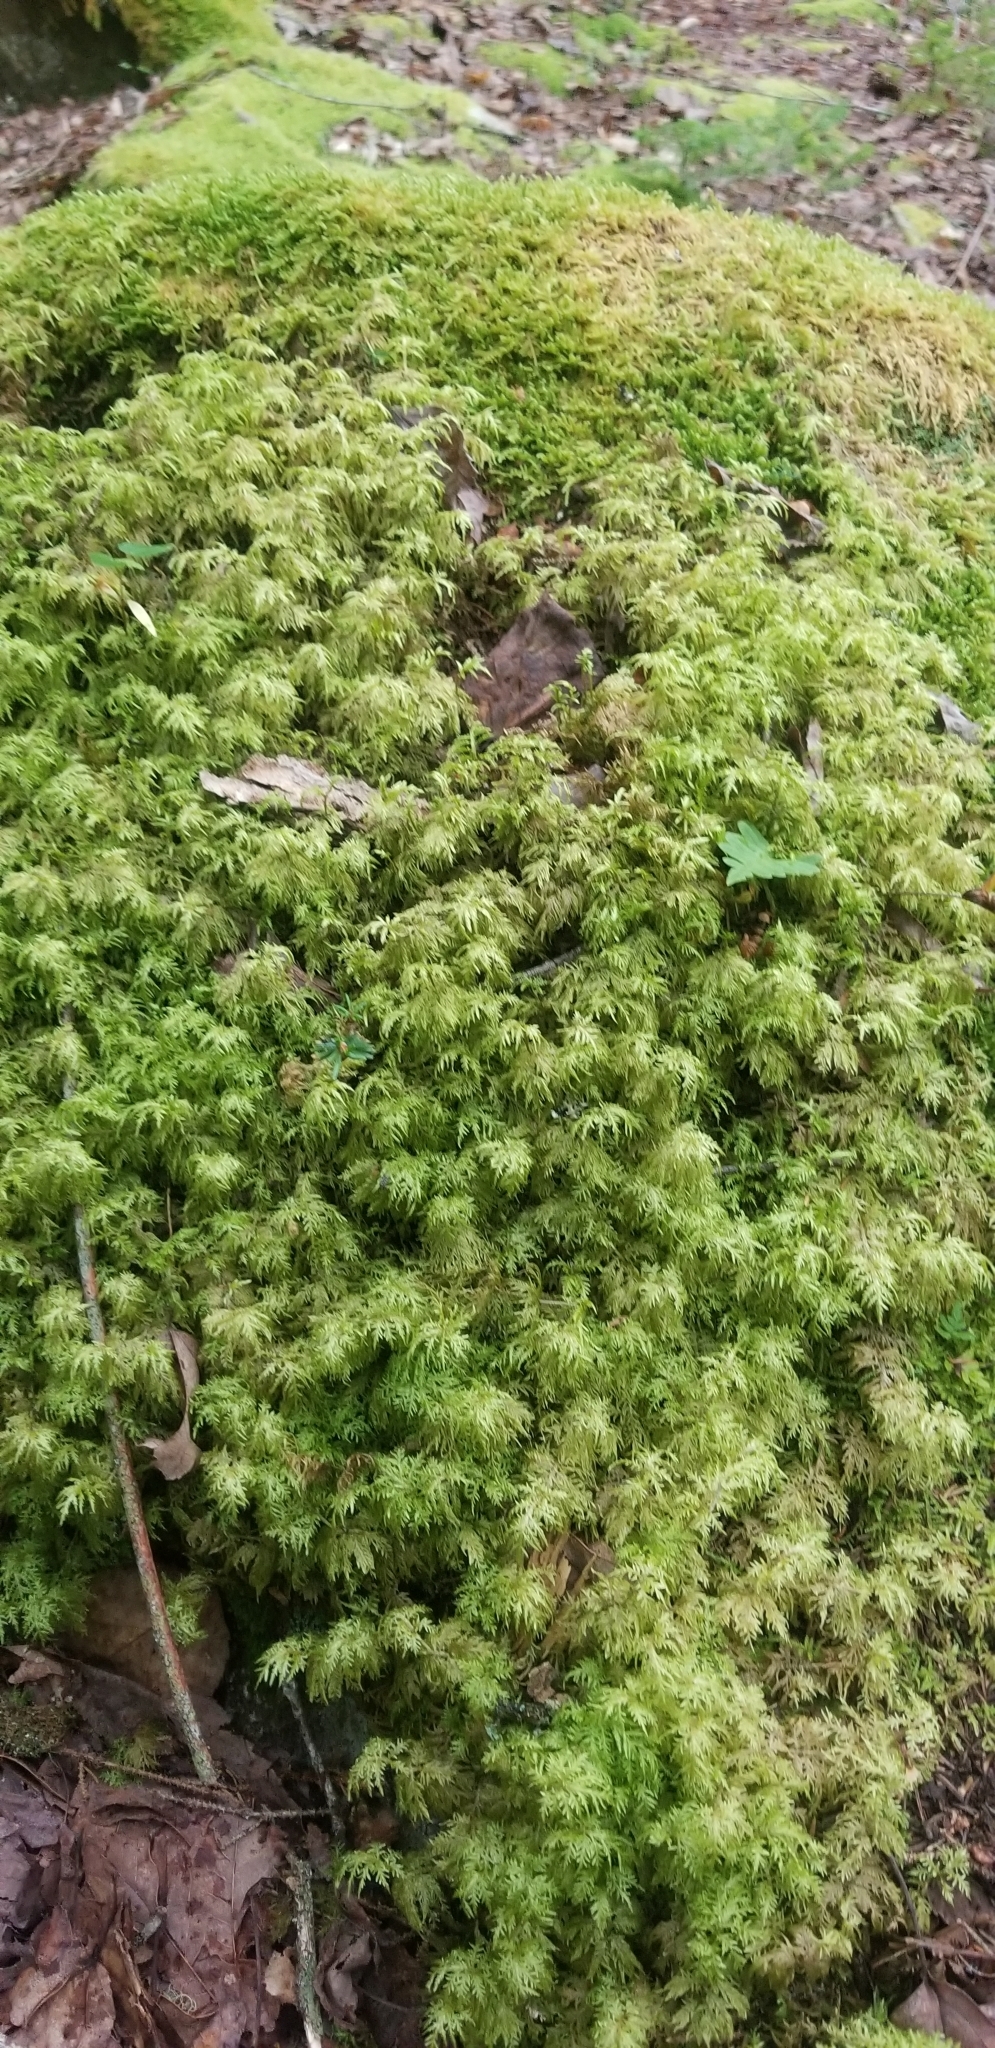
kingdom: Plantae
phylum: Bryophyta
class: Bryopsida
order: Hypnales
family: Hylocomiaceae
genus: Hylocomium
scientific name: Hylocomium splendens
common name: Stairstep moss
